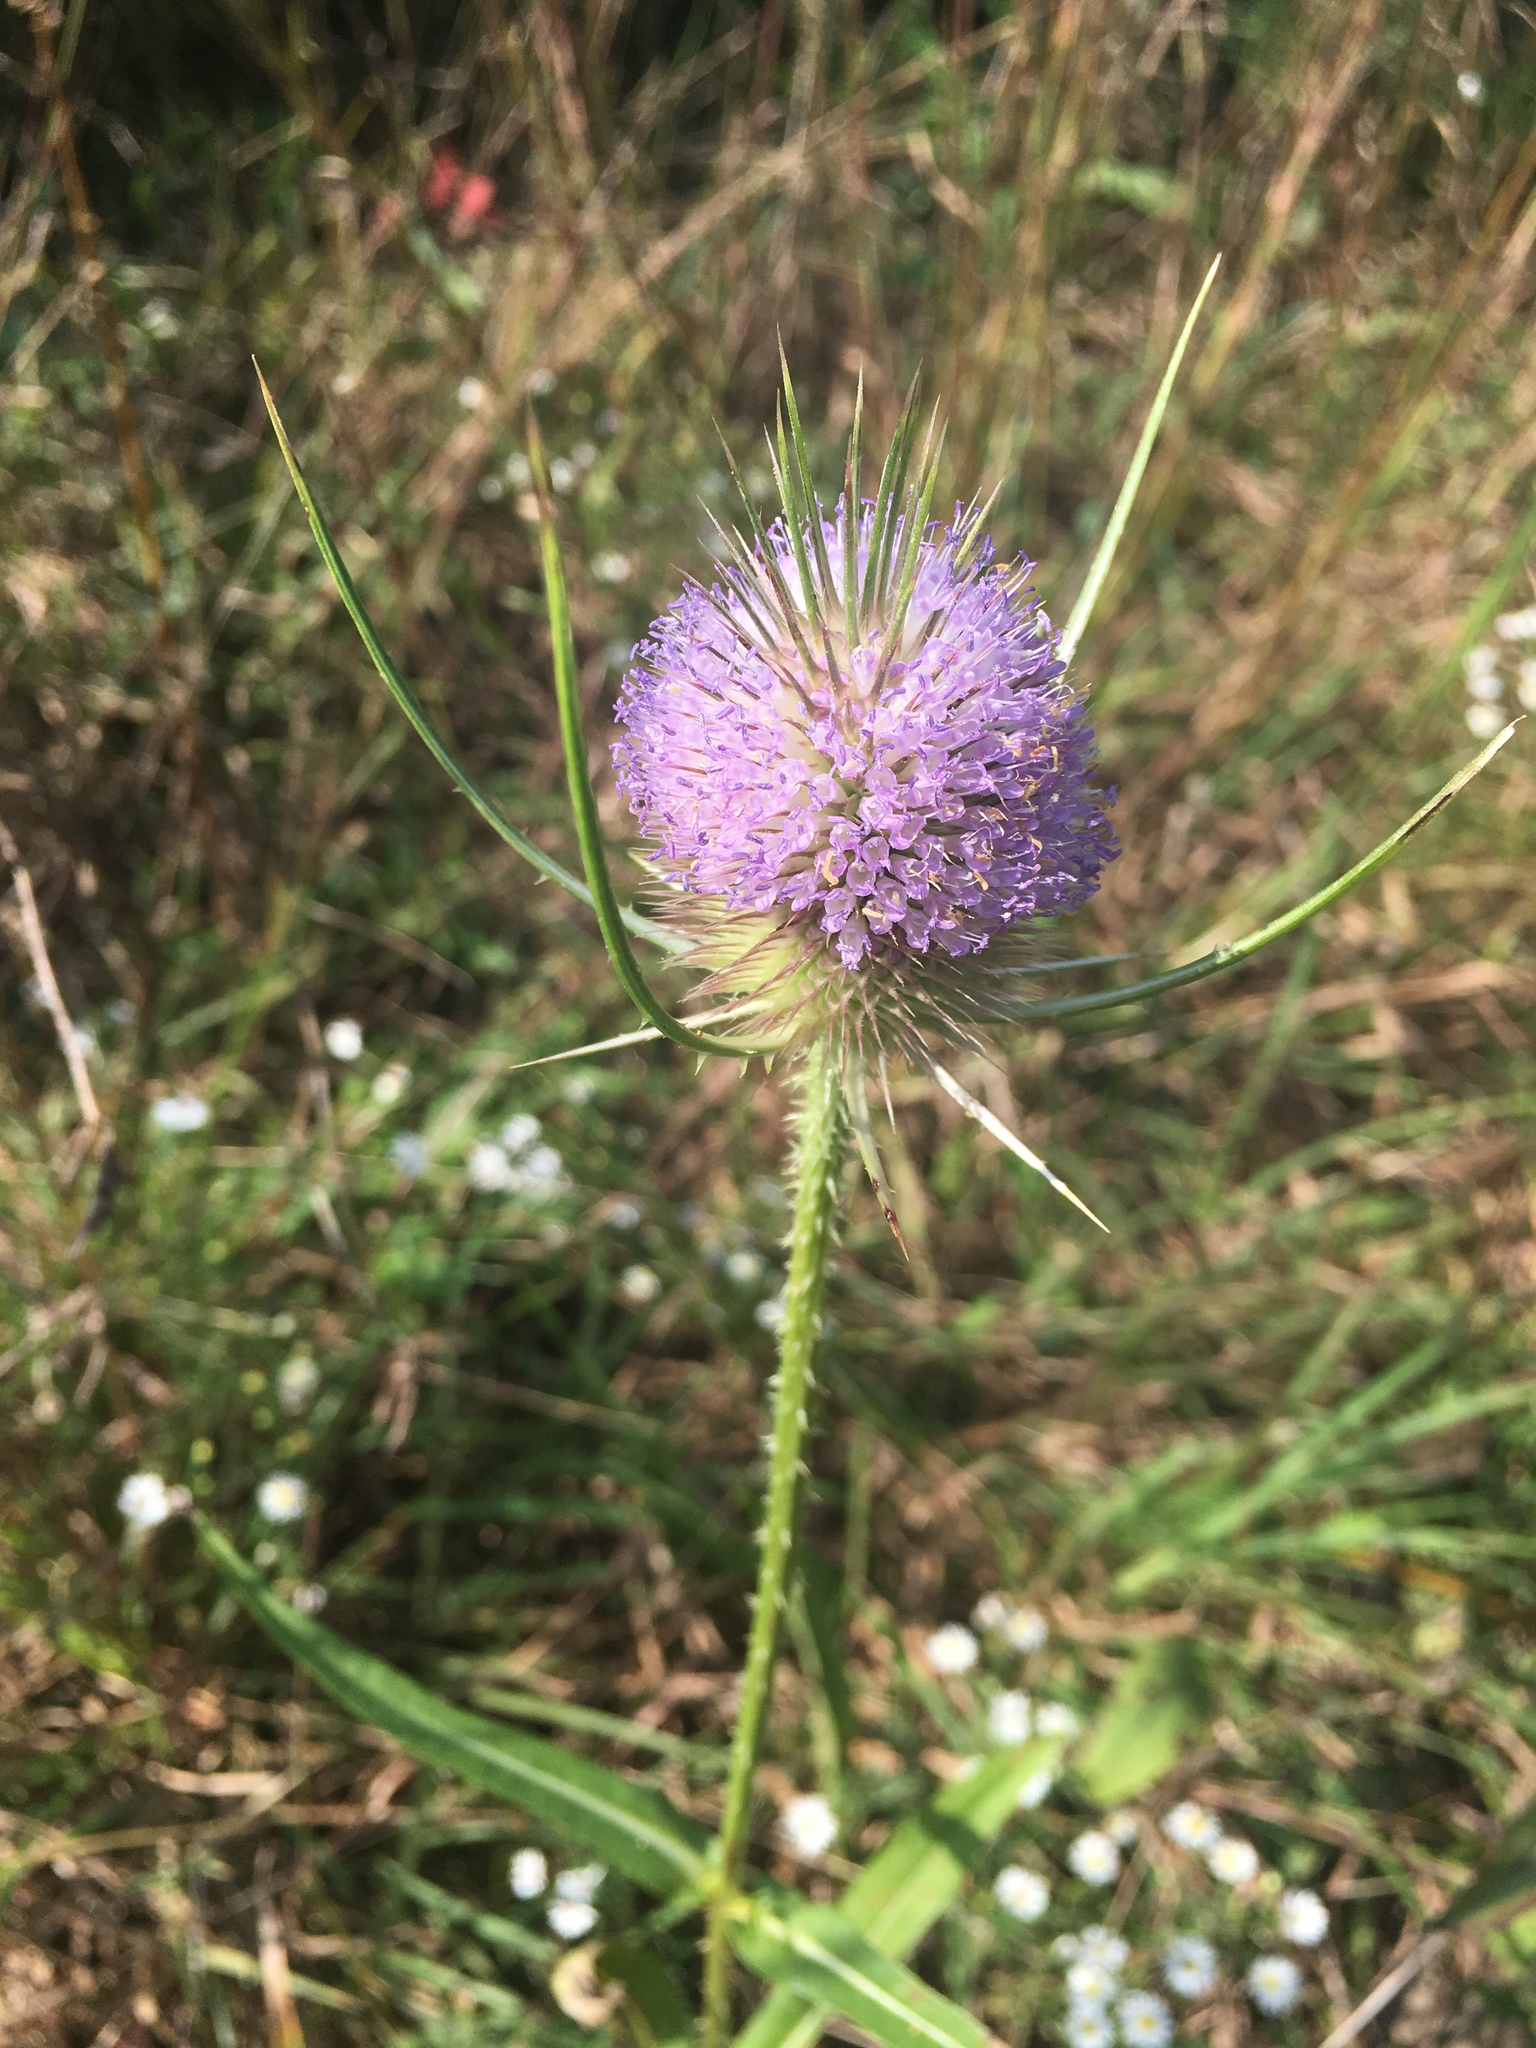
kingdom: Plantae
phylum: Tracheophyta
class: Magnoliopsida
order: Dipsacales
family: Caprifoliaceae
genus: Dipsacus
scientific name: Dipsacus fullonum
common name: Teasel
